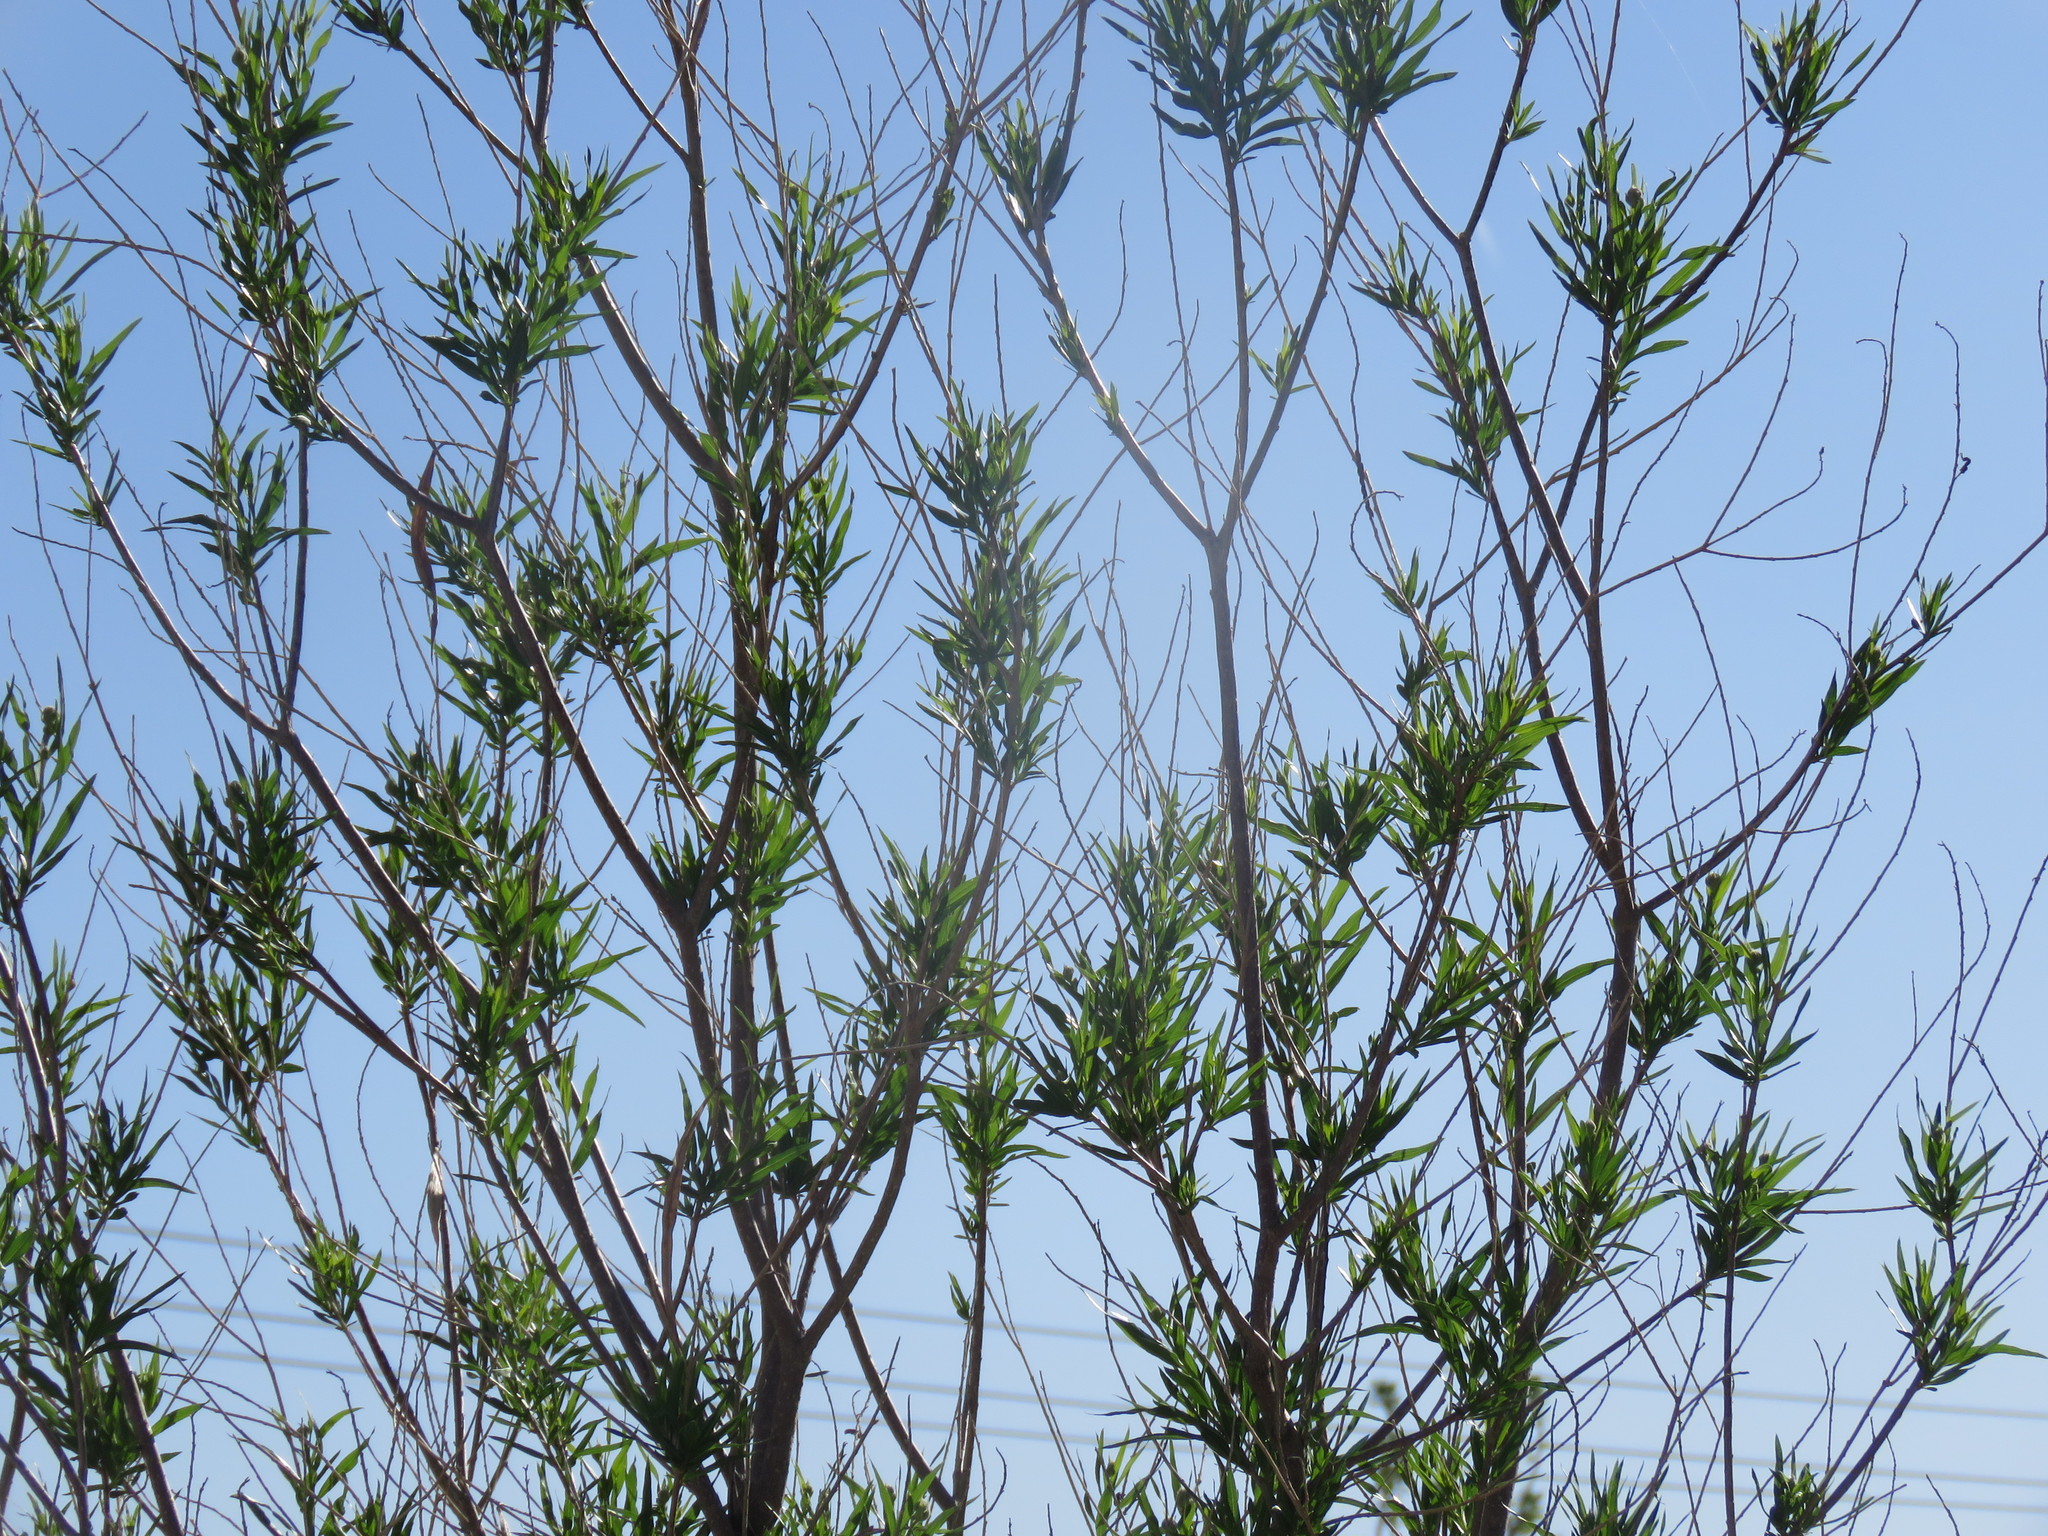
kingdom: Plantae
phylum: Tracheophyta
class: Magnoliopsida
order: Lamiales
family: Bignoniaceae
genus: Chilopsis
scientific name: Chilopsis linearis
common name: Desert-willow
